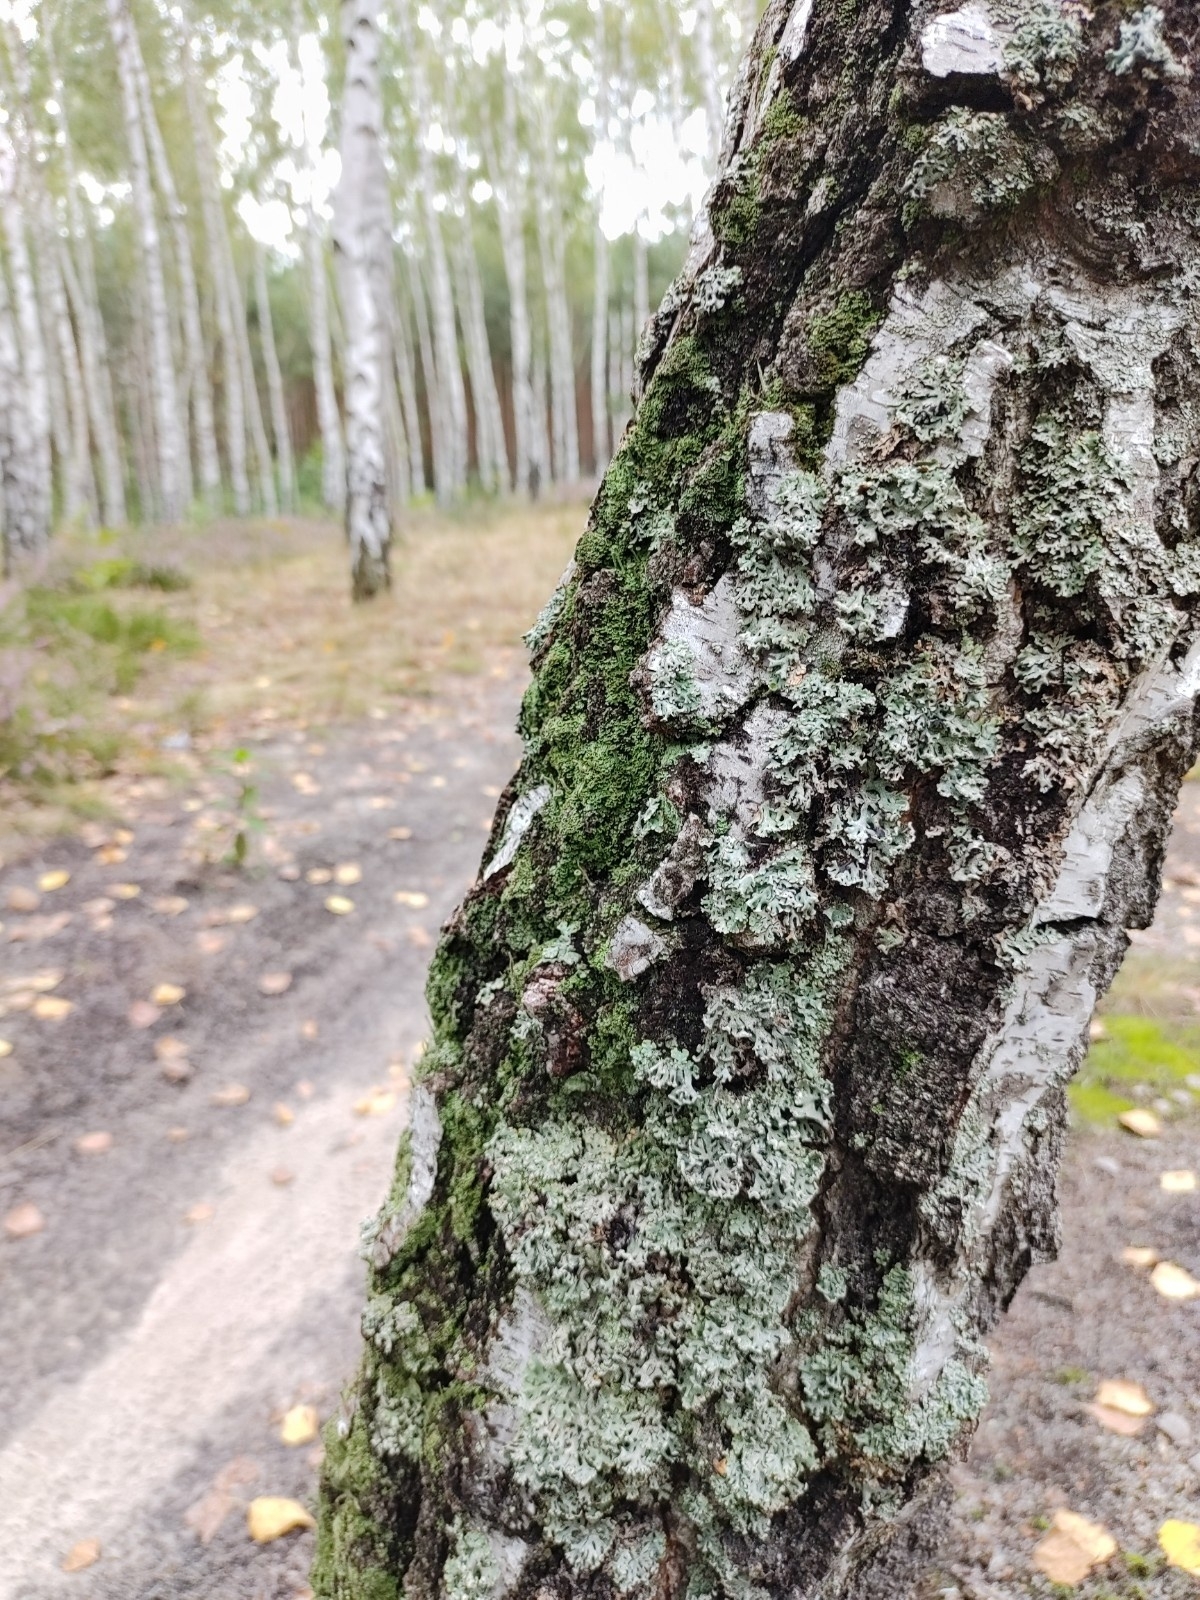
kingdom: Fungi
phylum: Ascomycota
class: Lecanoromycetes
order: Lecanorales
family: Parmeliaceae
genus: Hypogymnia
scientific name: Hypogymnia physodes
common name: Dark crottle
